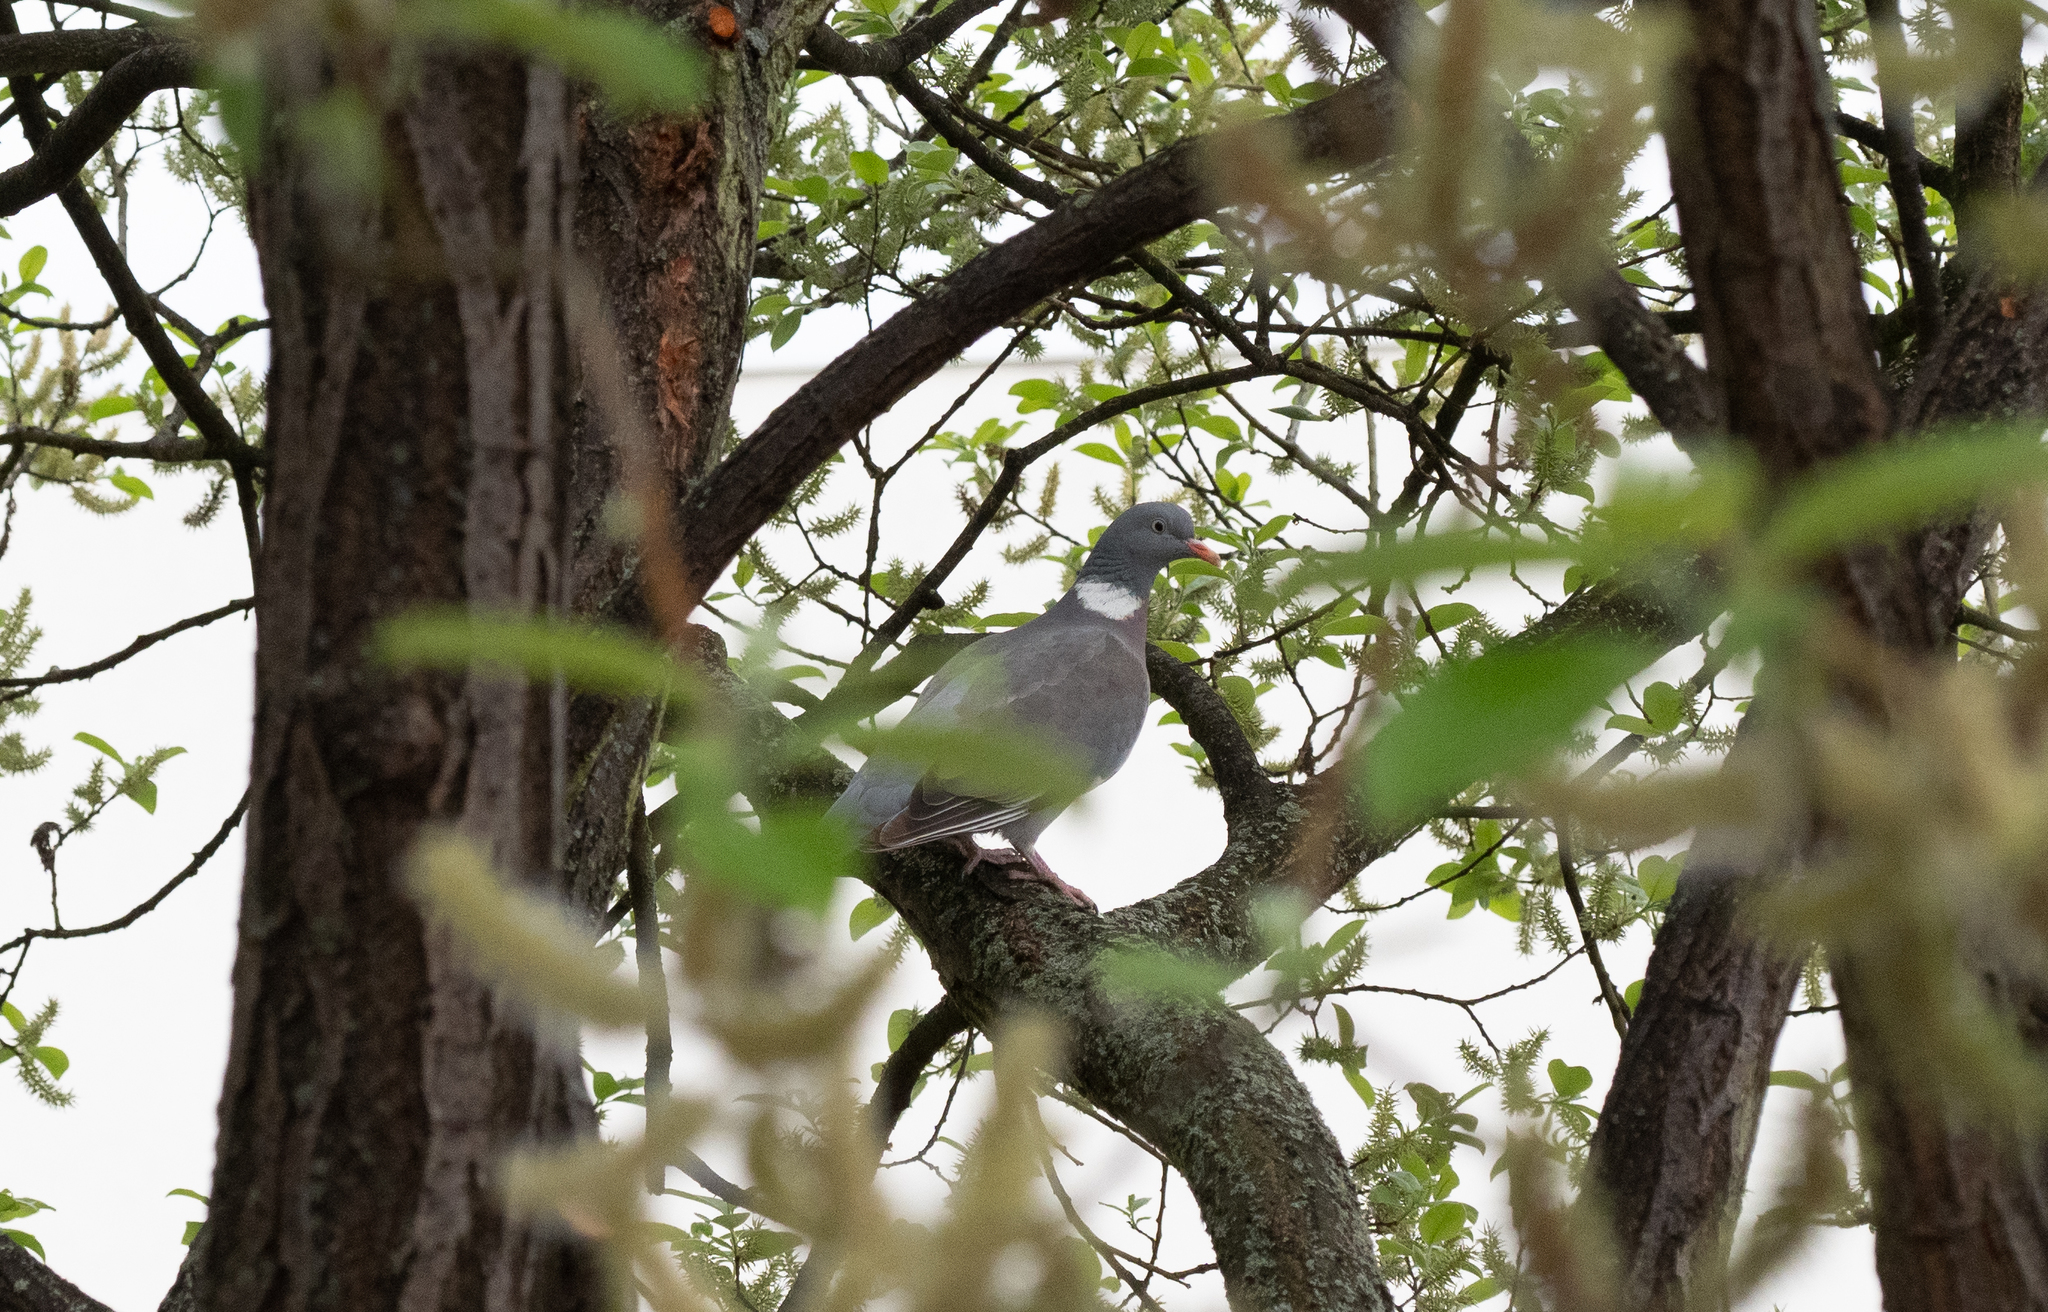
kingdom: Animalia
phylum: Chordata
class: Aves
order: Columbiformes
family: Columbidae
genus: Columba
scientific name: Columba palumbus
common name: Common wood pigeon
